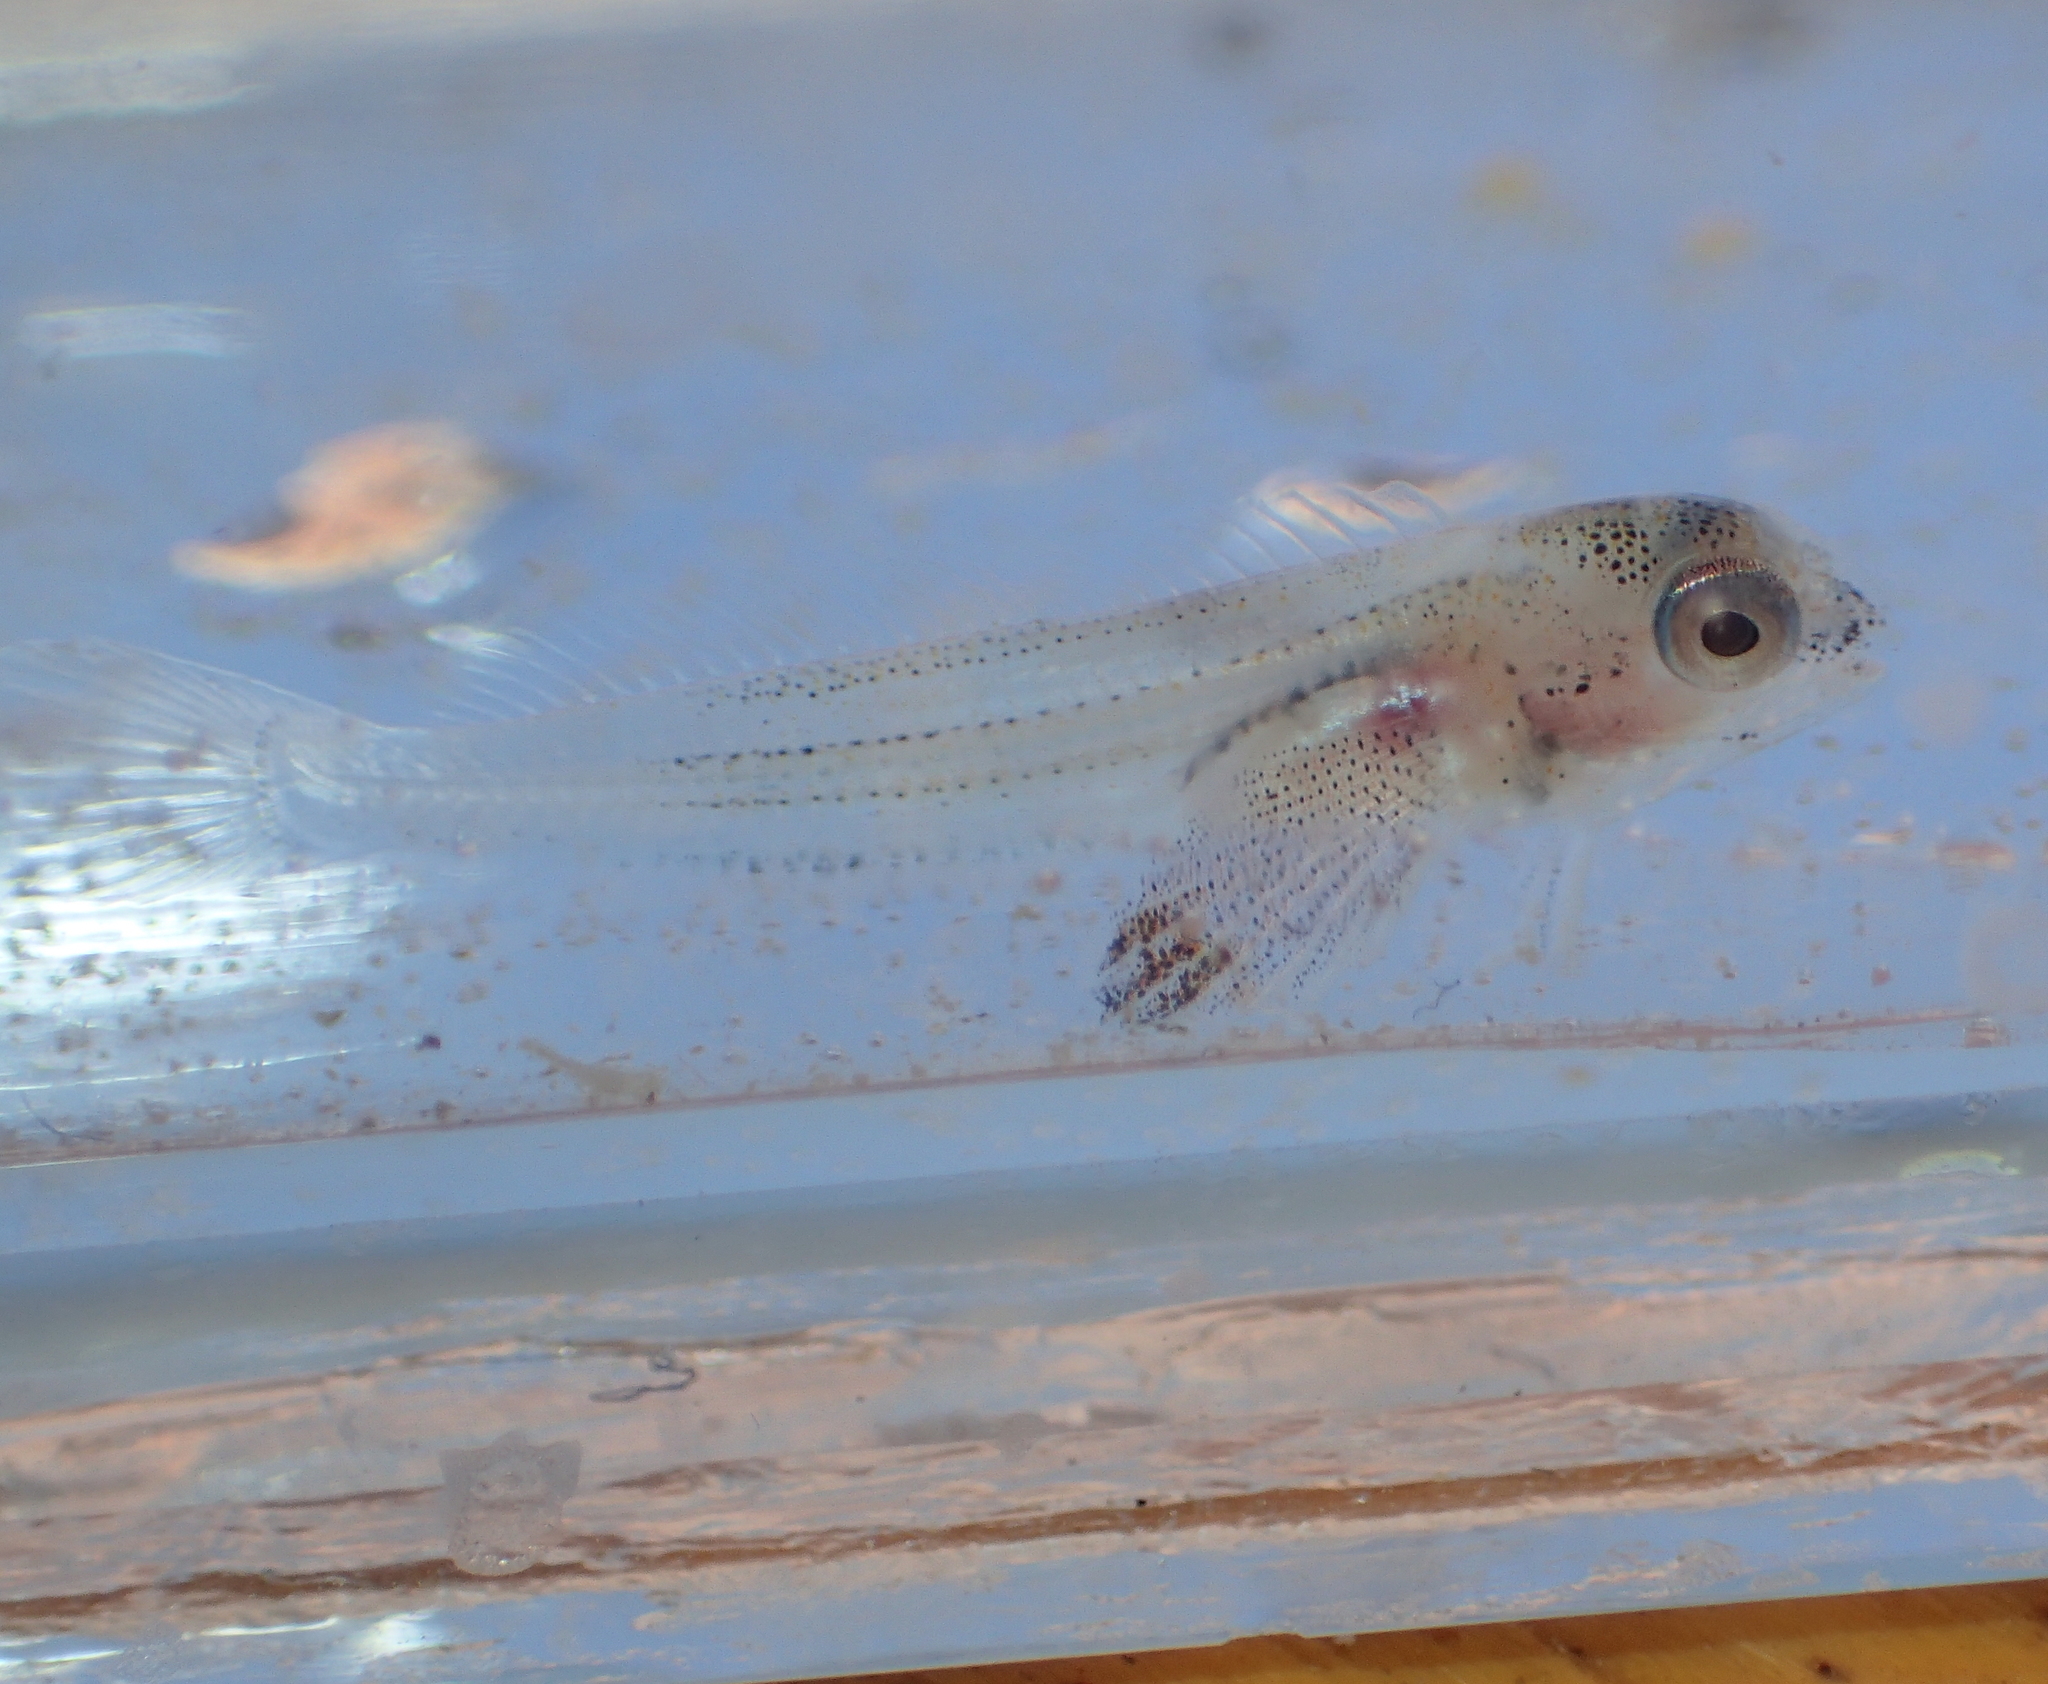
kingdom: Animalia
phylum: Chordata
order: Perciformes
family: Blenniidae
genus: Lipophrys
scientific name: Lipophrys pholis
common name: Shanny
